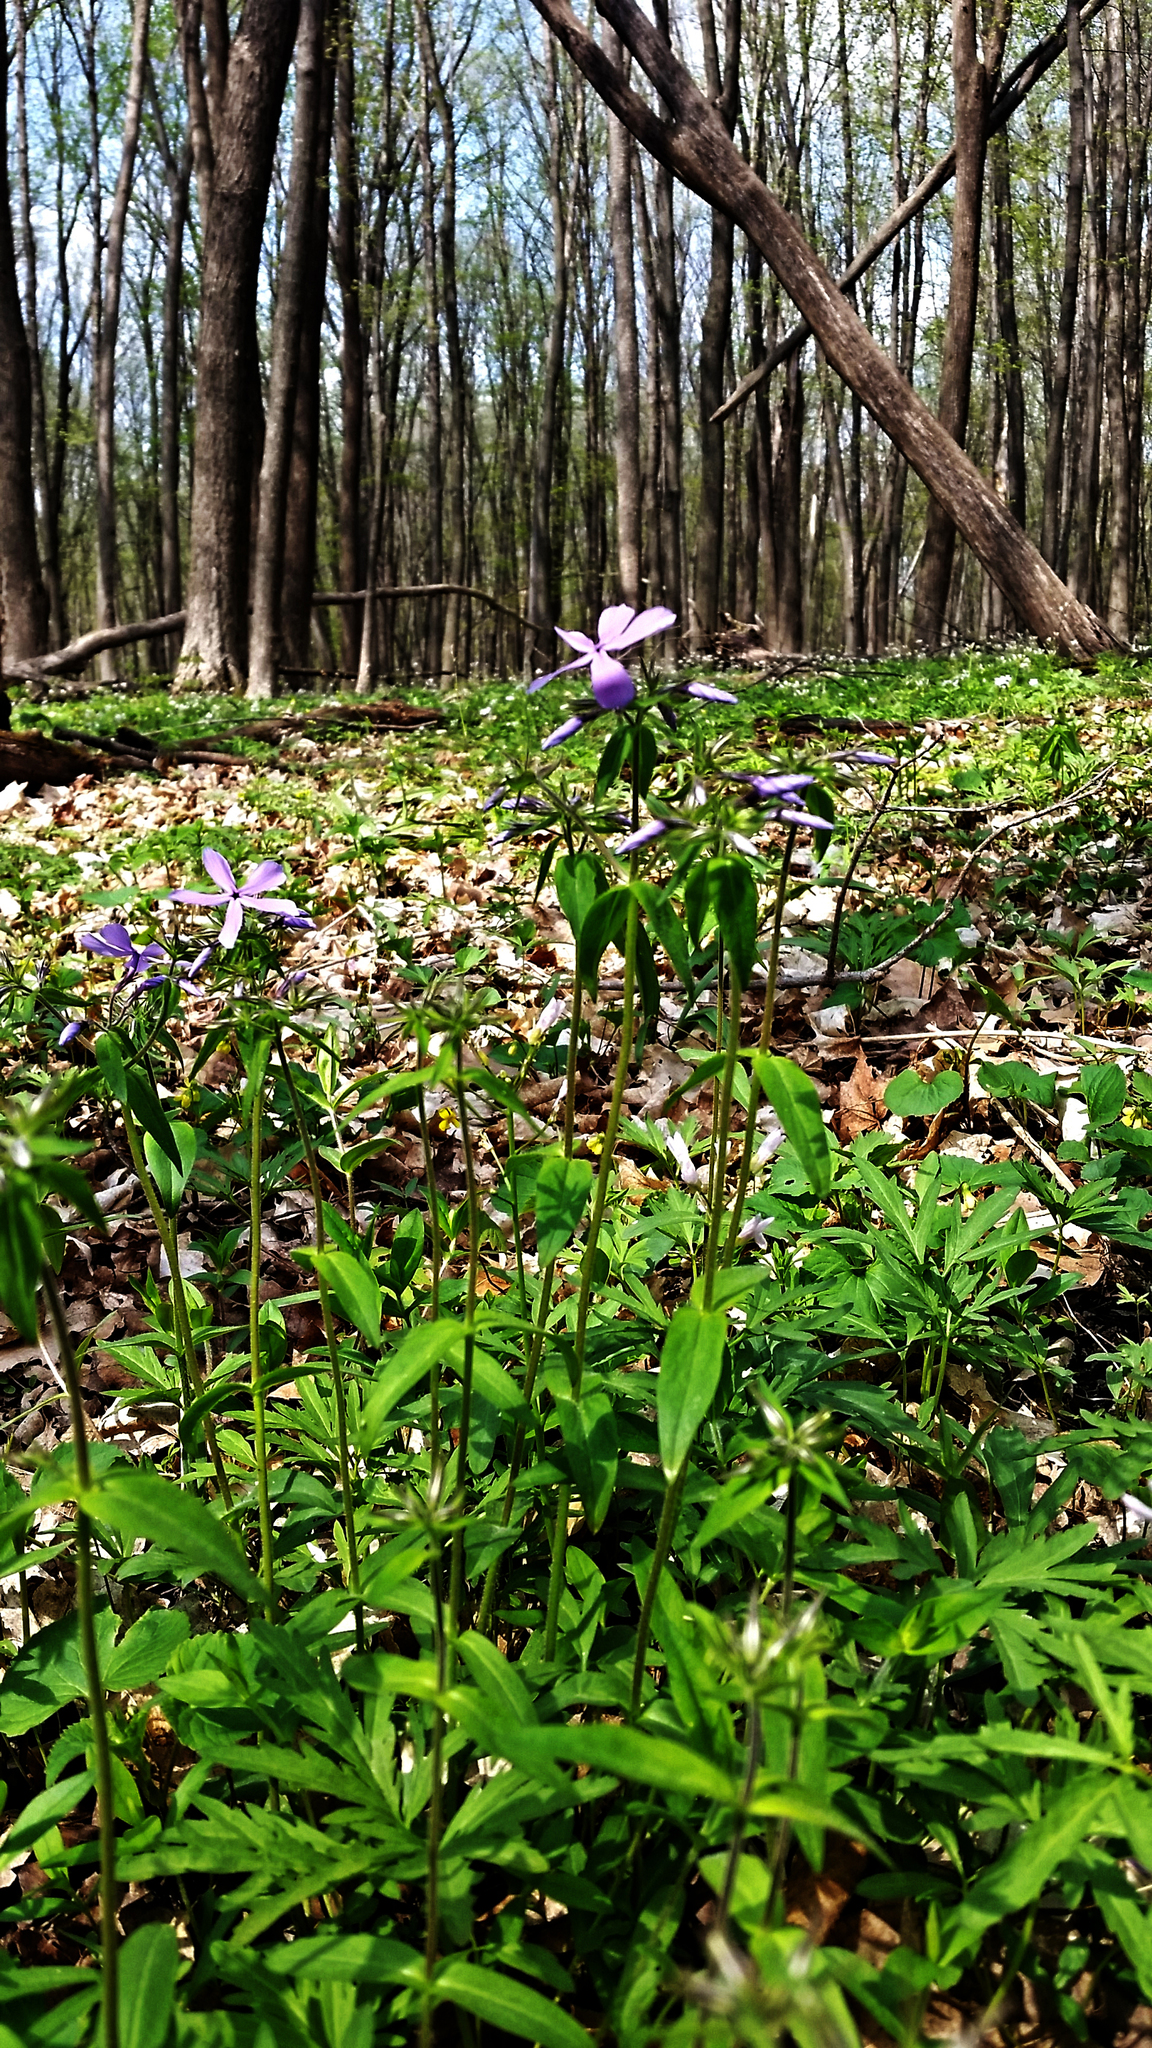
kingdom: Plantae
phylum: Tracheophyta
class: Magnoliopsida
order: Ericales
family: Polemoniaceae
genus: Phlox
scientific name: Phlox divaricata
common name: Blue phlox
